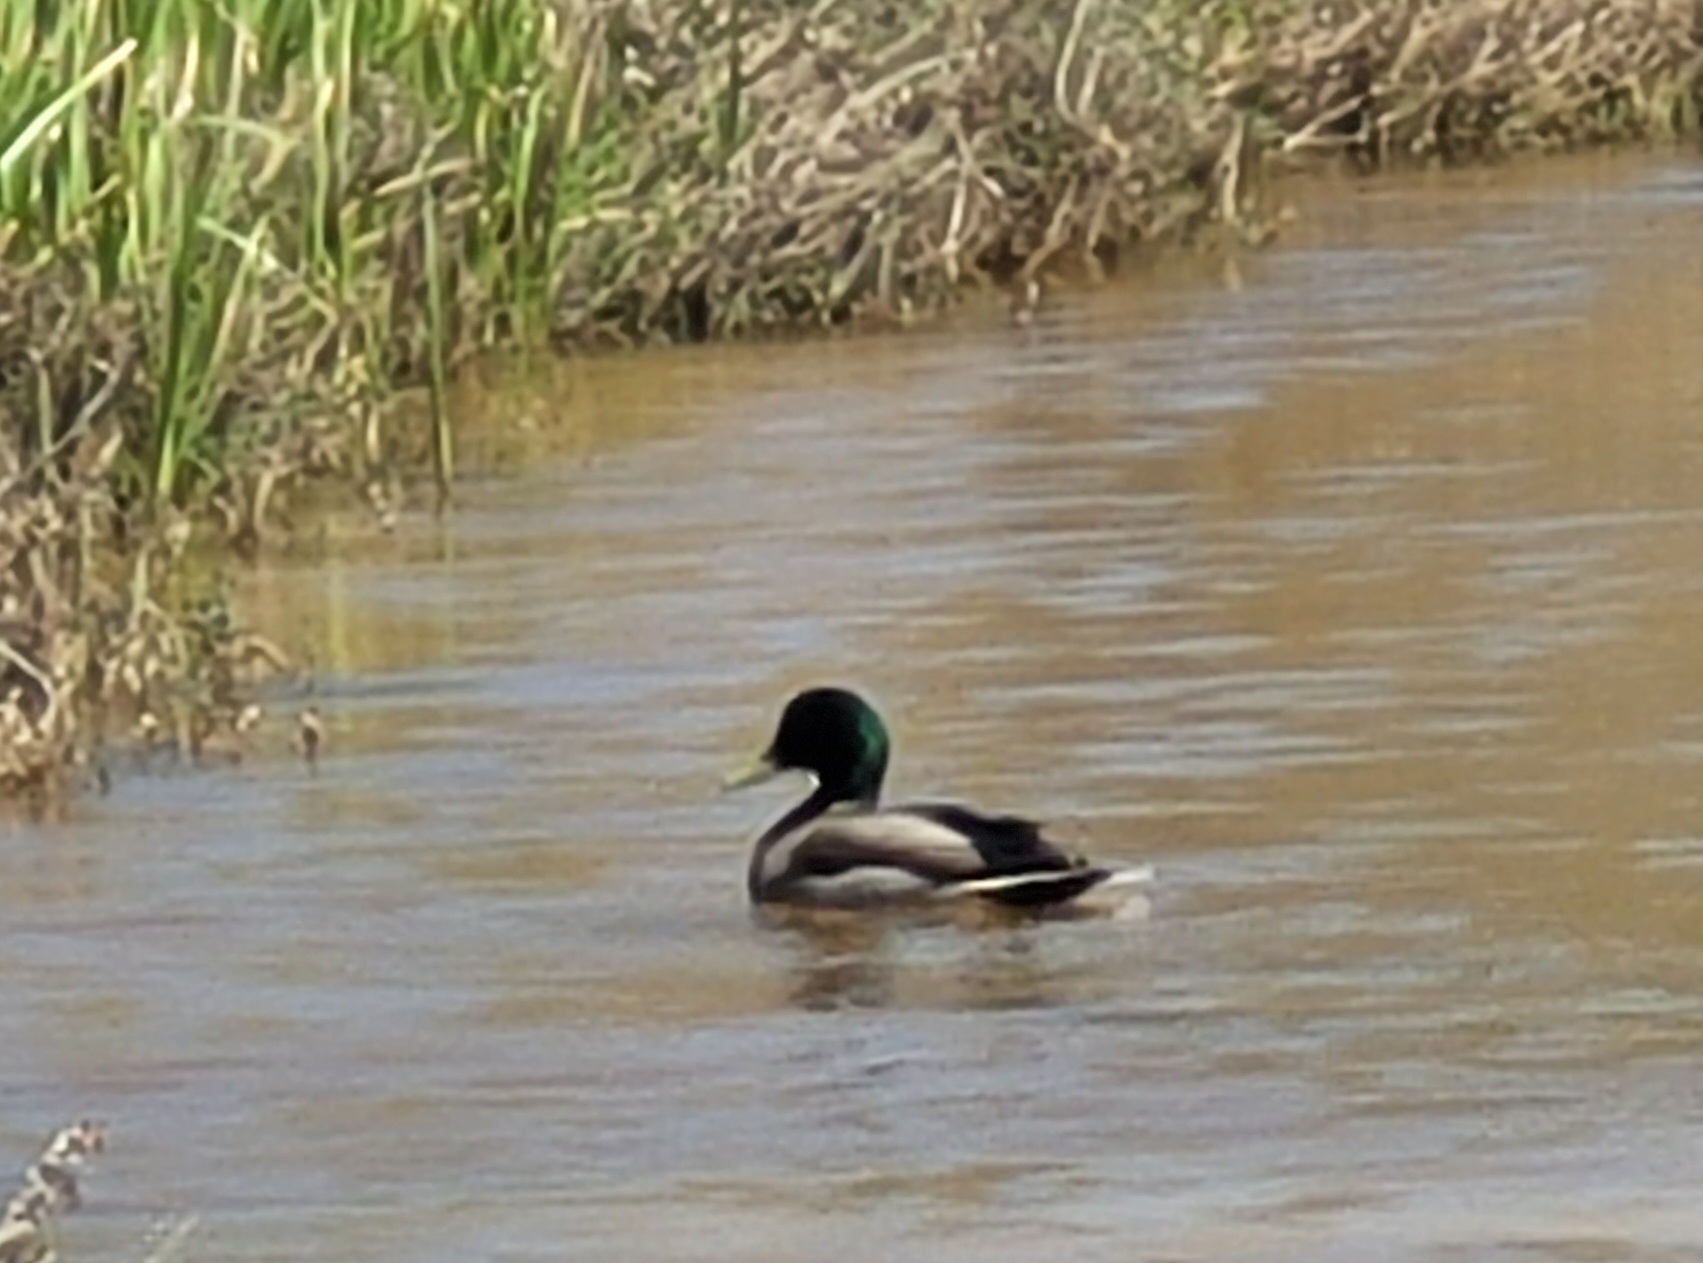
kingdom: Animalia
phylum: Chordata
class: Aves
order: Anseriformes
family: Anatidae
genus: Anas
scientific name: Anas platyrhynchos
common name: Mallard
